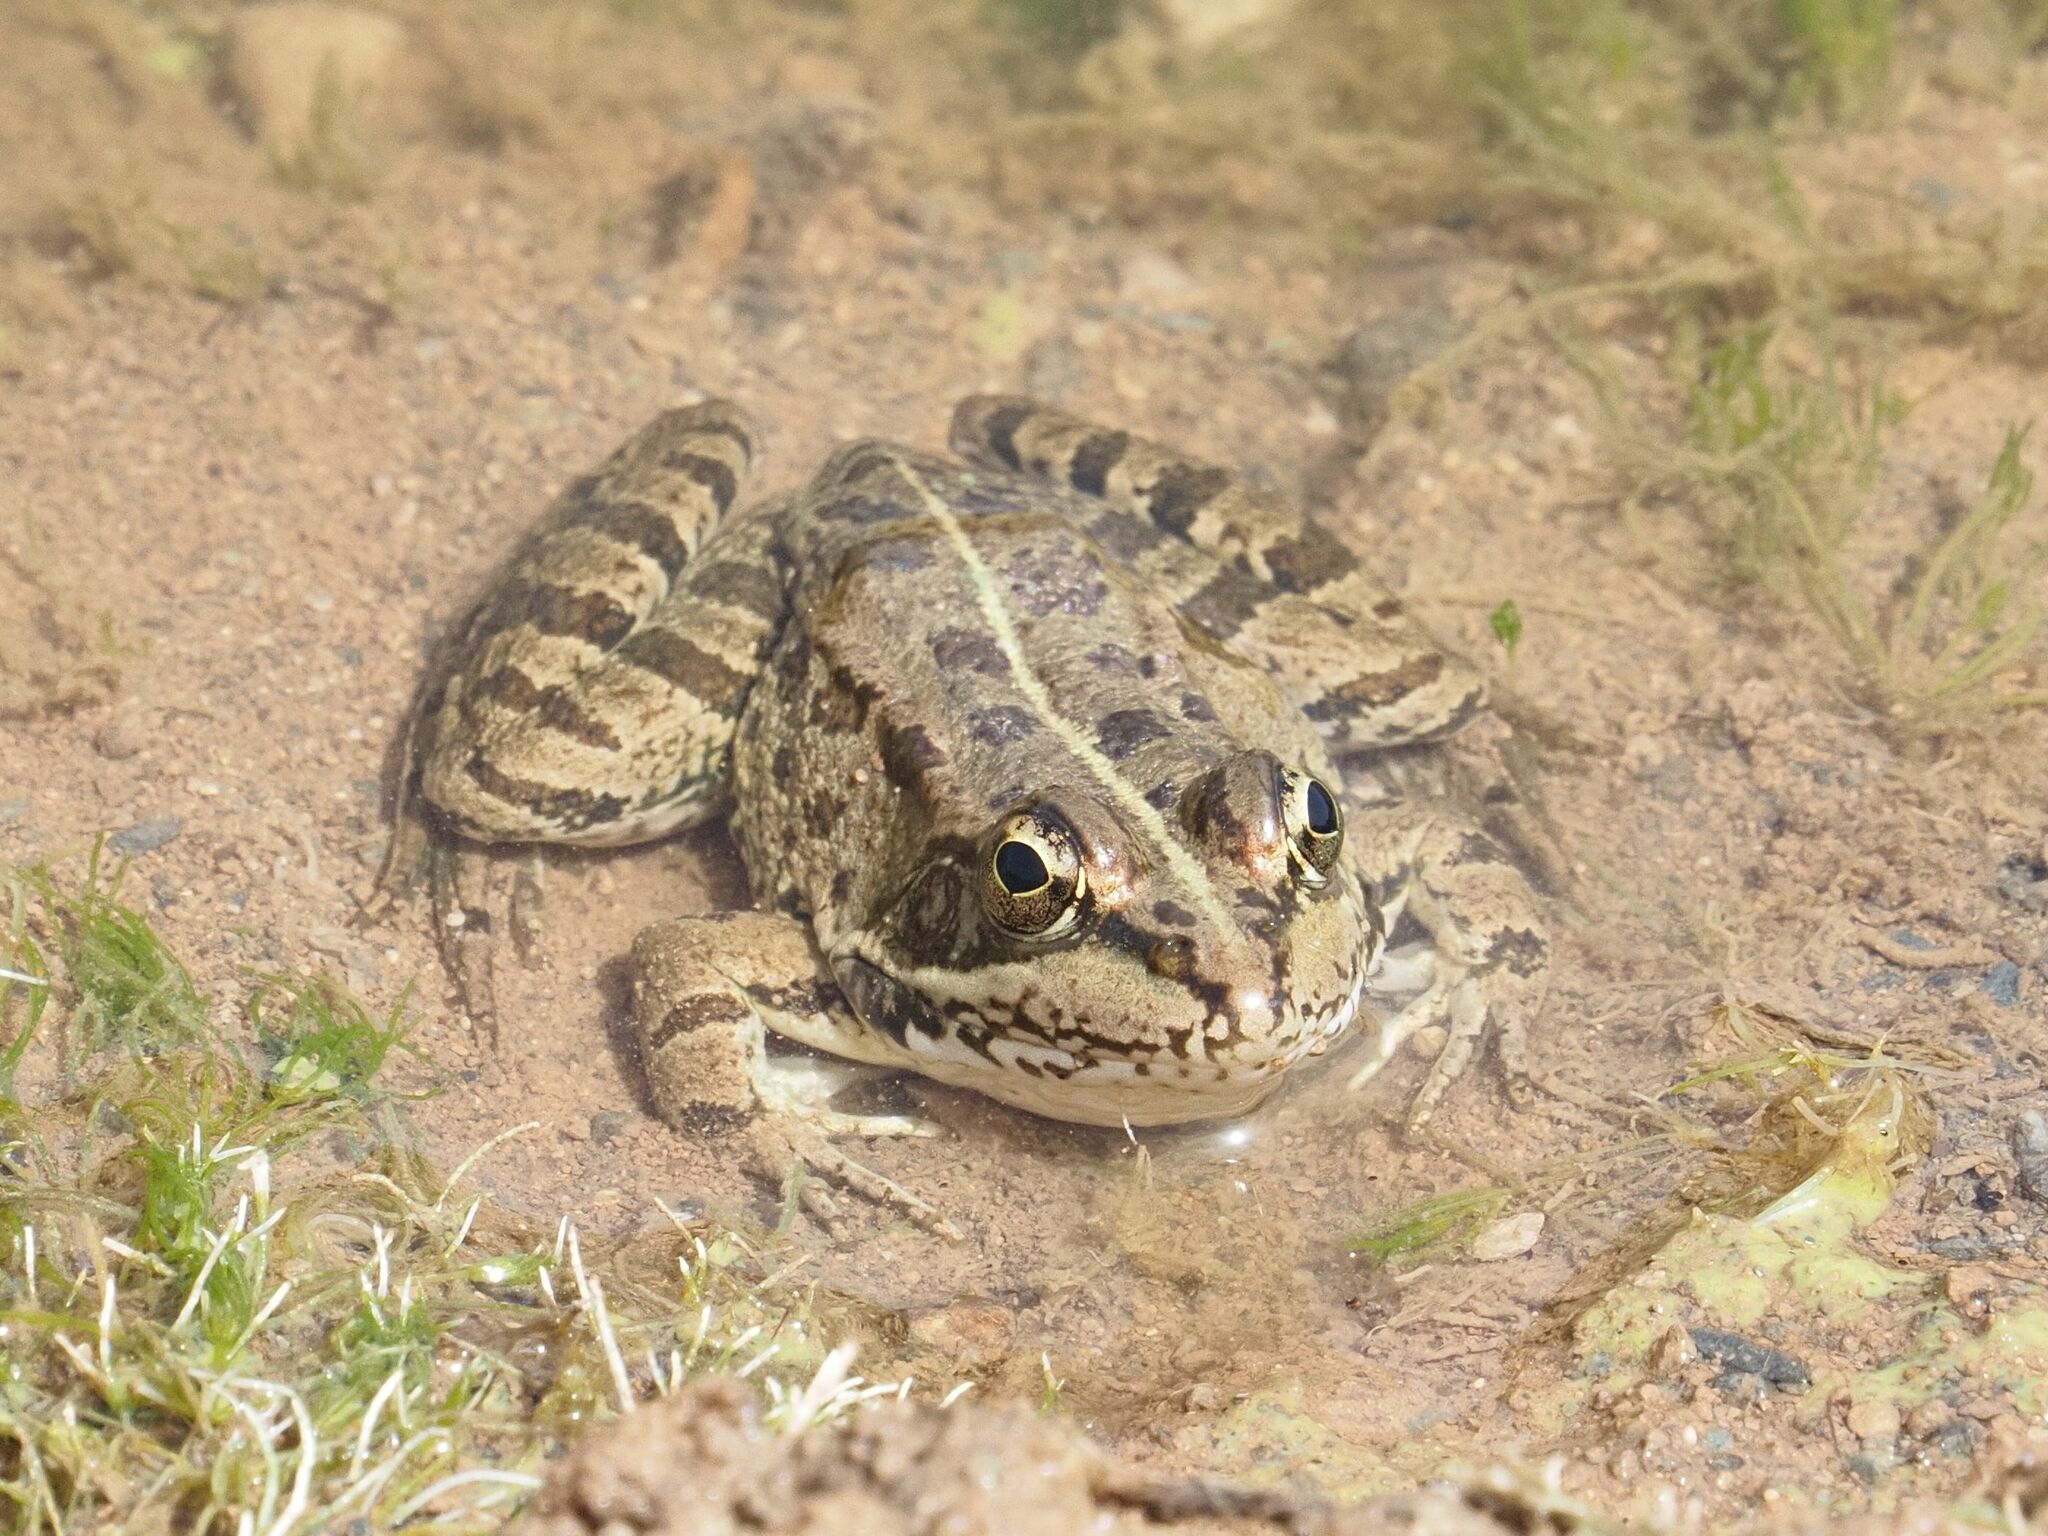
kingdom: Animalia
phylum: Chordata
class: Amphibia
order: Anura
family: Ranidae
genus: Pelophylax
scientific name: Pelophylax perezi
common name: Perez's frog
